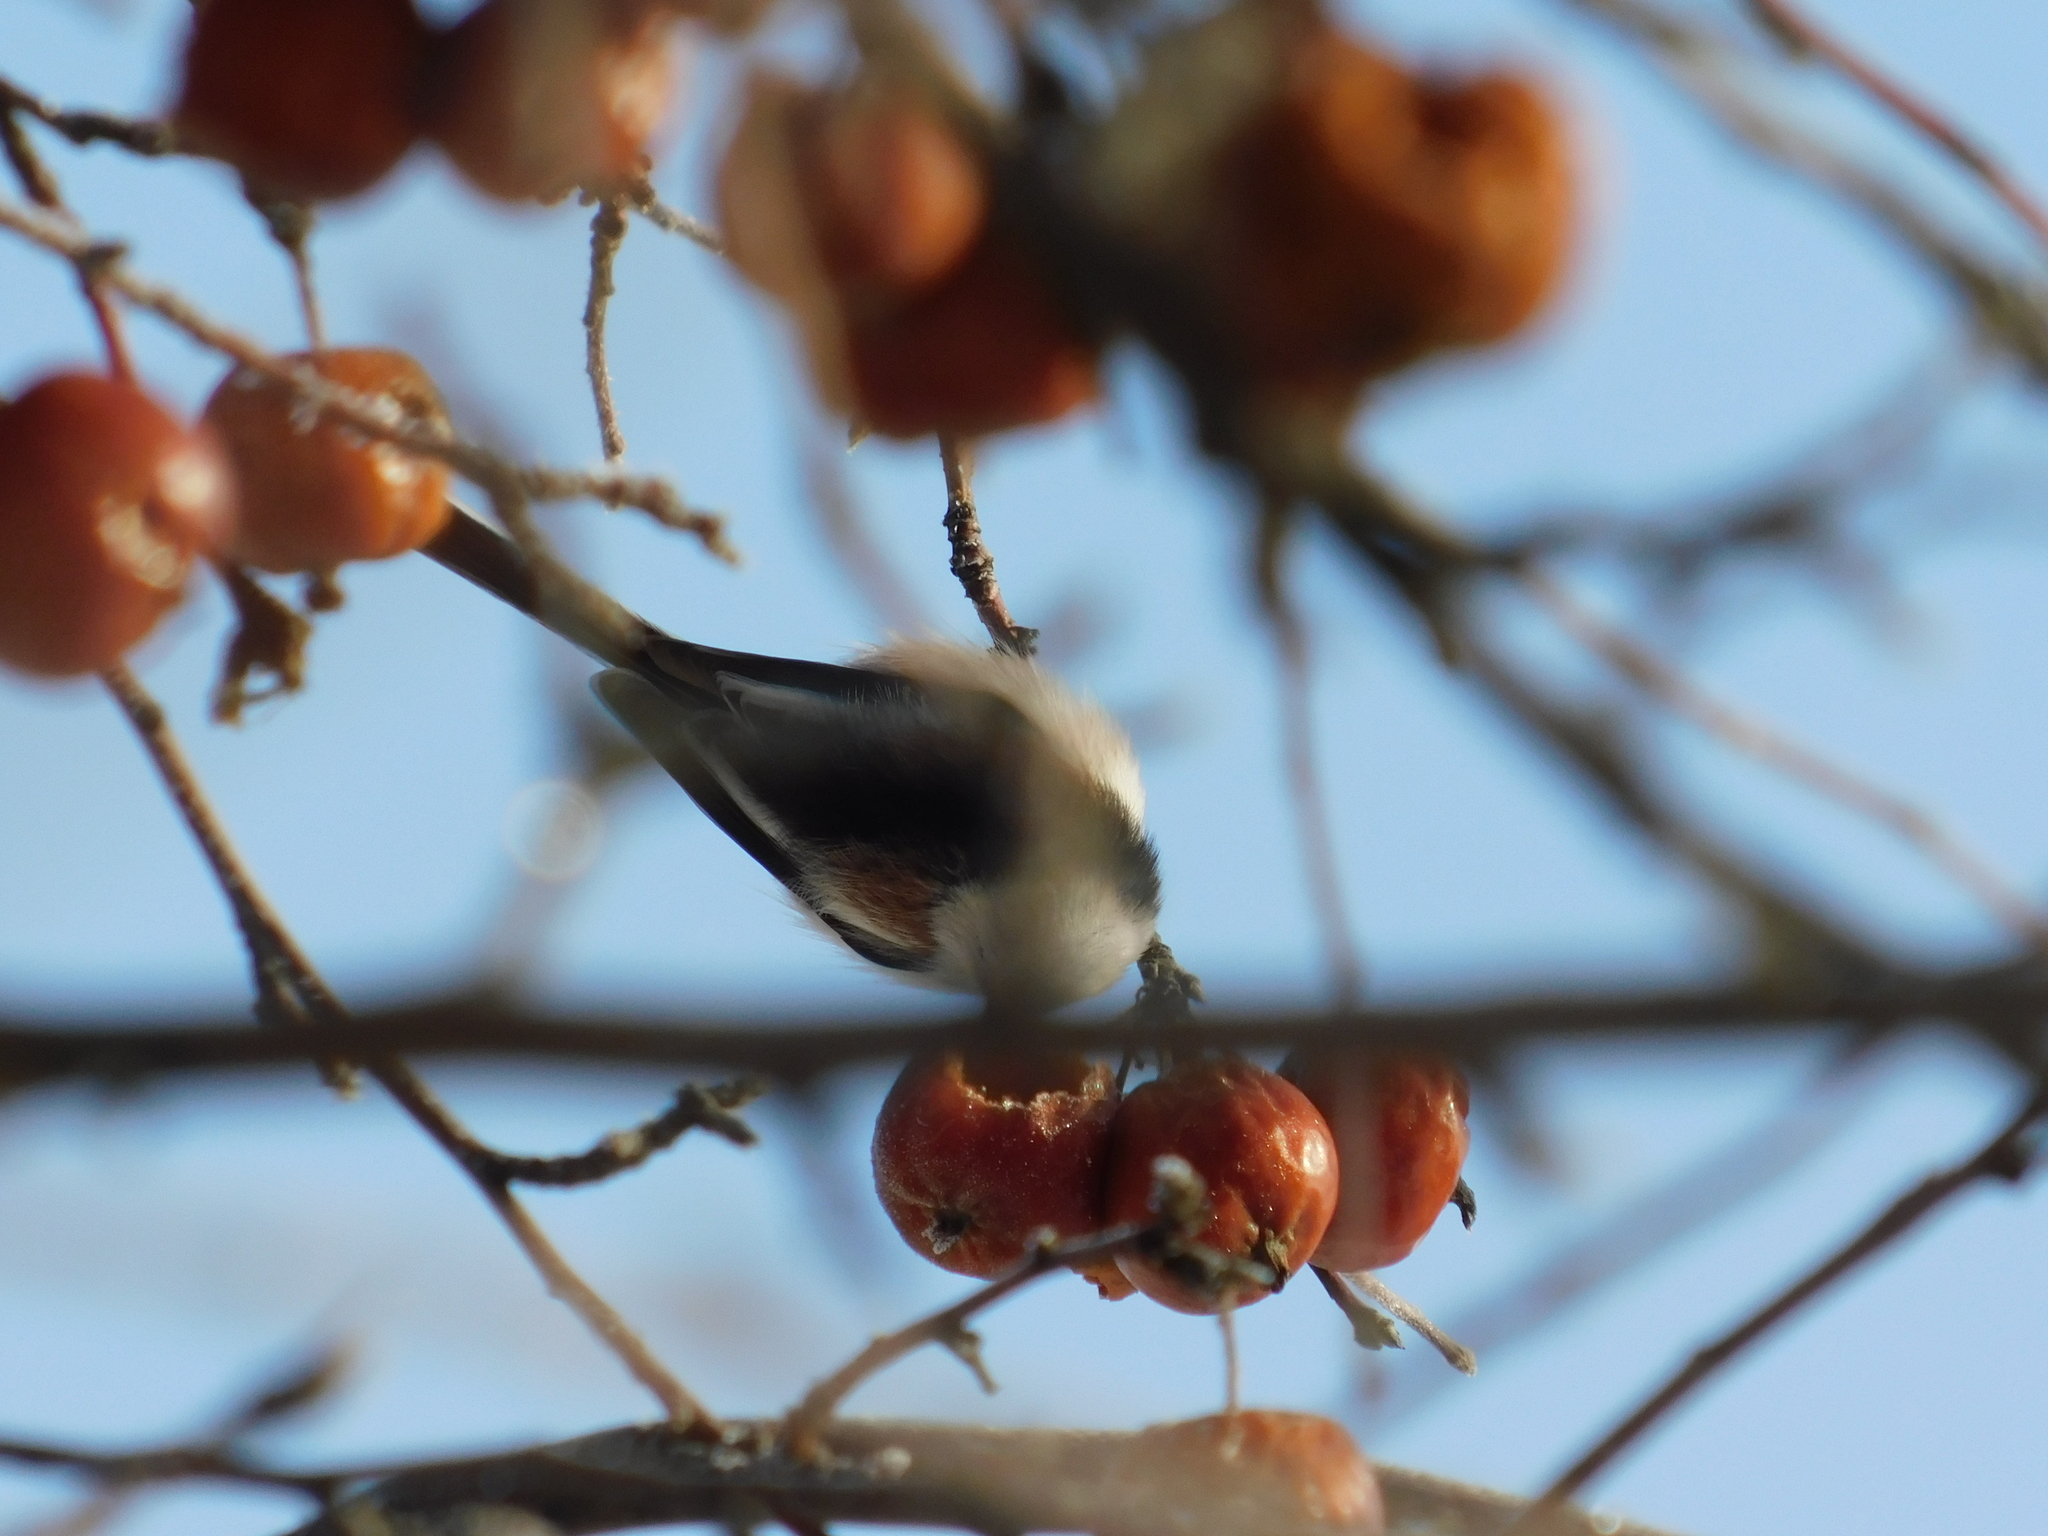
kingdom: Animalia
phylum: Chordata
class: Aves
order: Passeriformes
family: Aegithalidae
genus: Aegithalos
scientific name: Aegithalos caudatus
